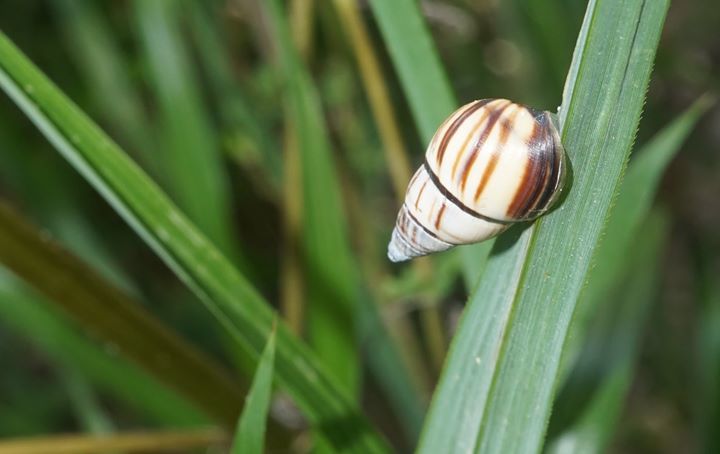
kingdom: Animalia
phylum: Mollusca
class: Gastropoda
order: Stylommatophora
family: Bulimulidae
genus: Drymaeus
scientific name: Drymaeus
